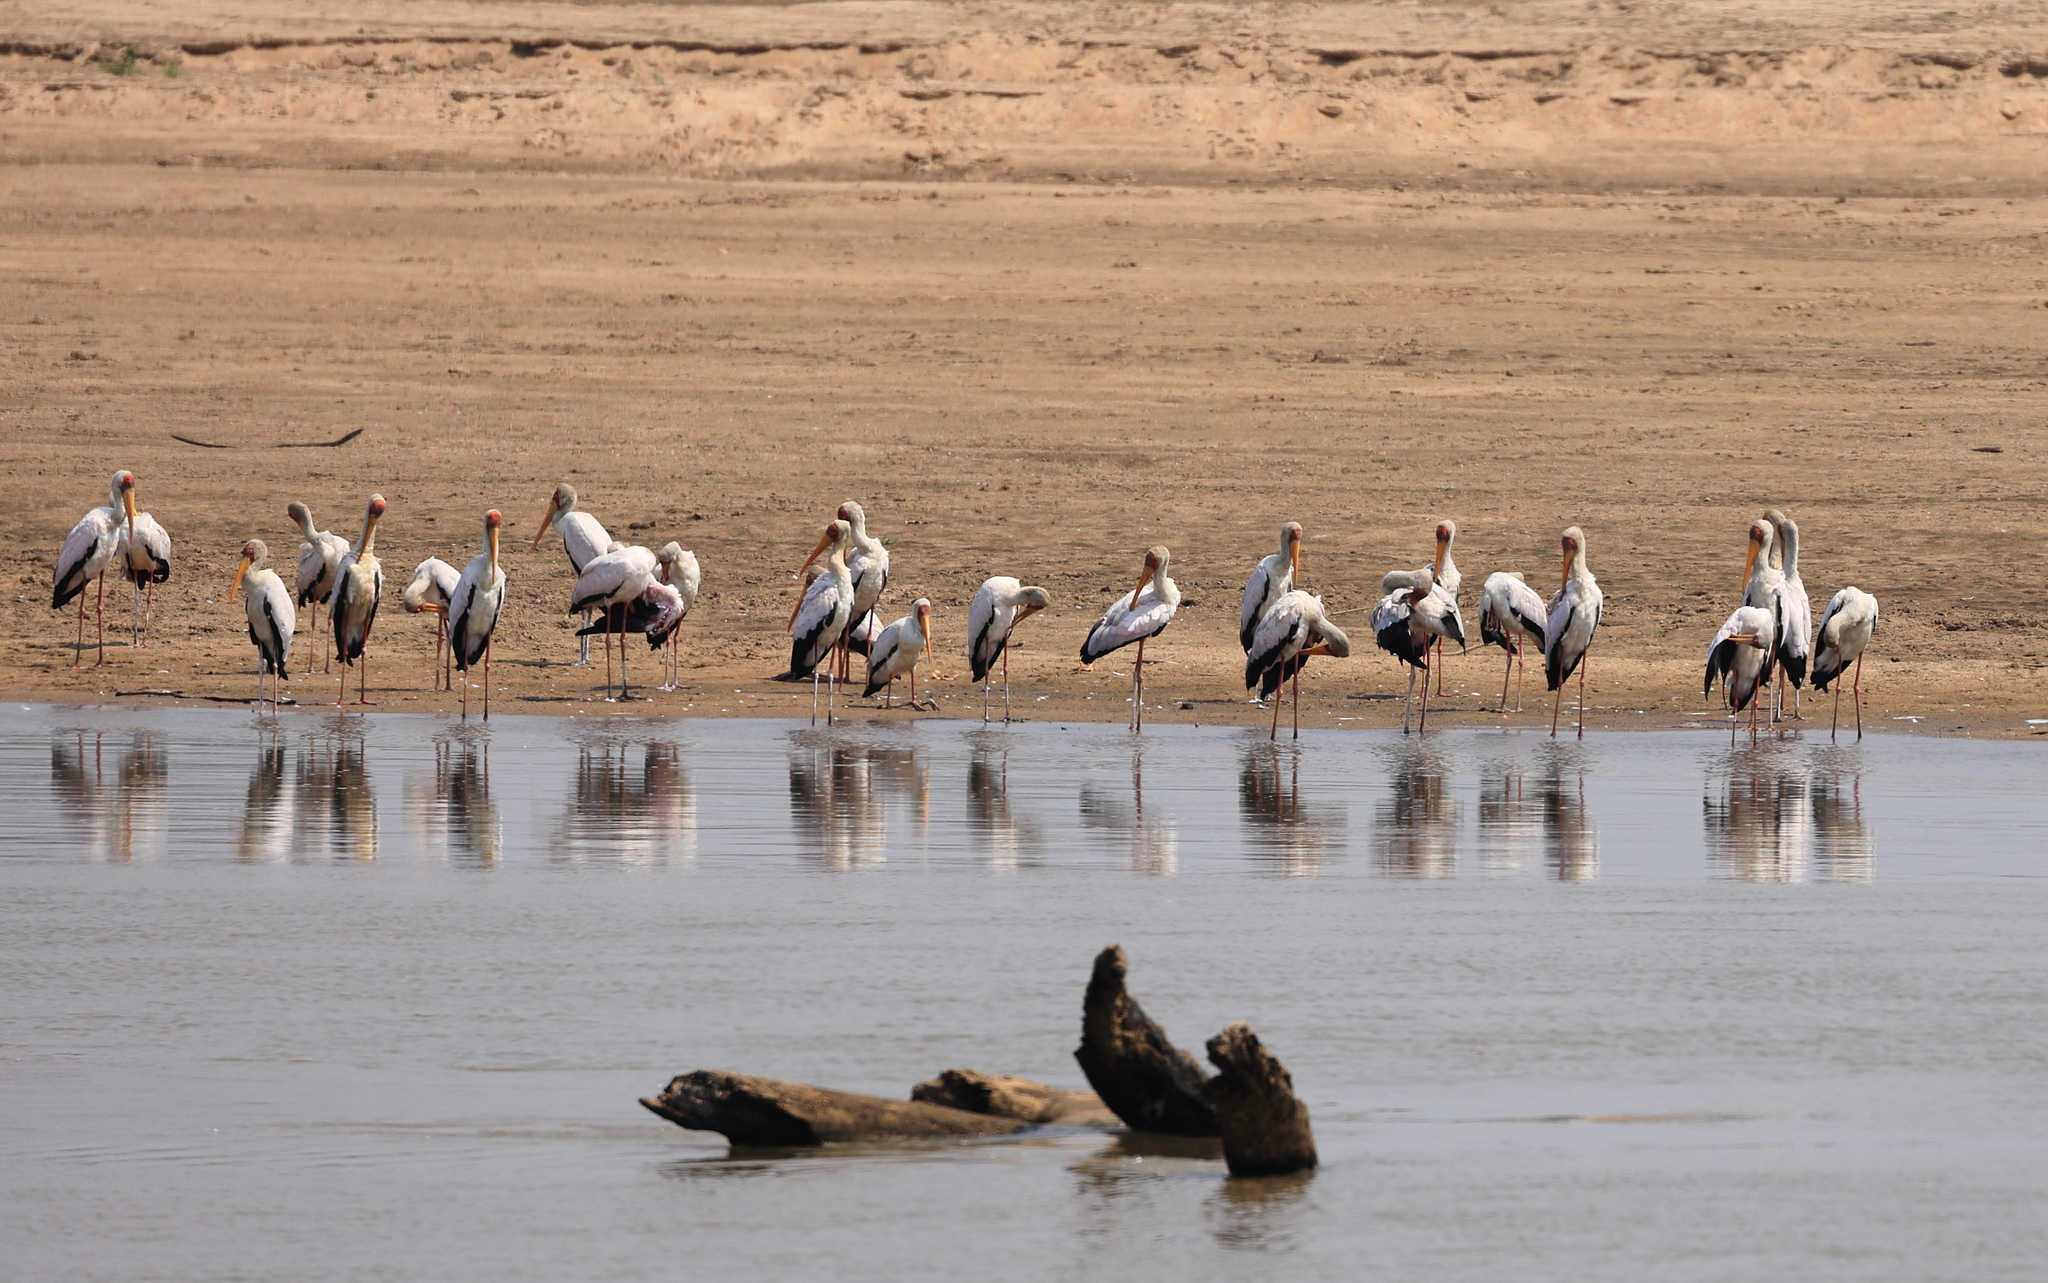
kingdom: Animalia
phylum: Chordata
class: Aves
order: Ciconiiformes
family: Ciconiidae
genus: Mycteria
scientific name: Mycteria ibis
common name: Yellow-billed stork
